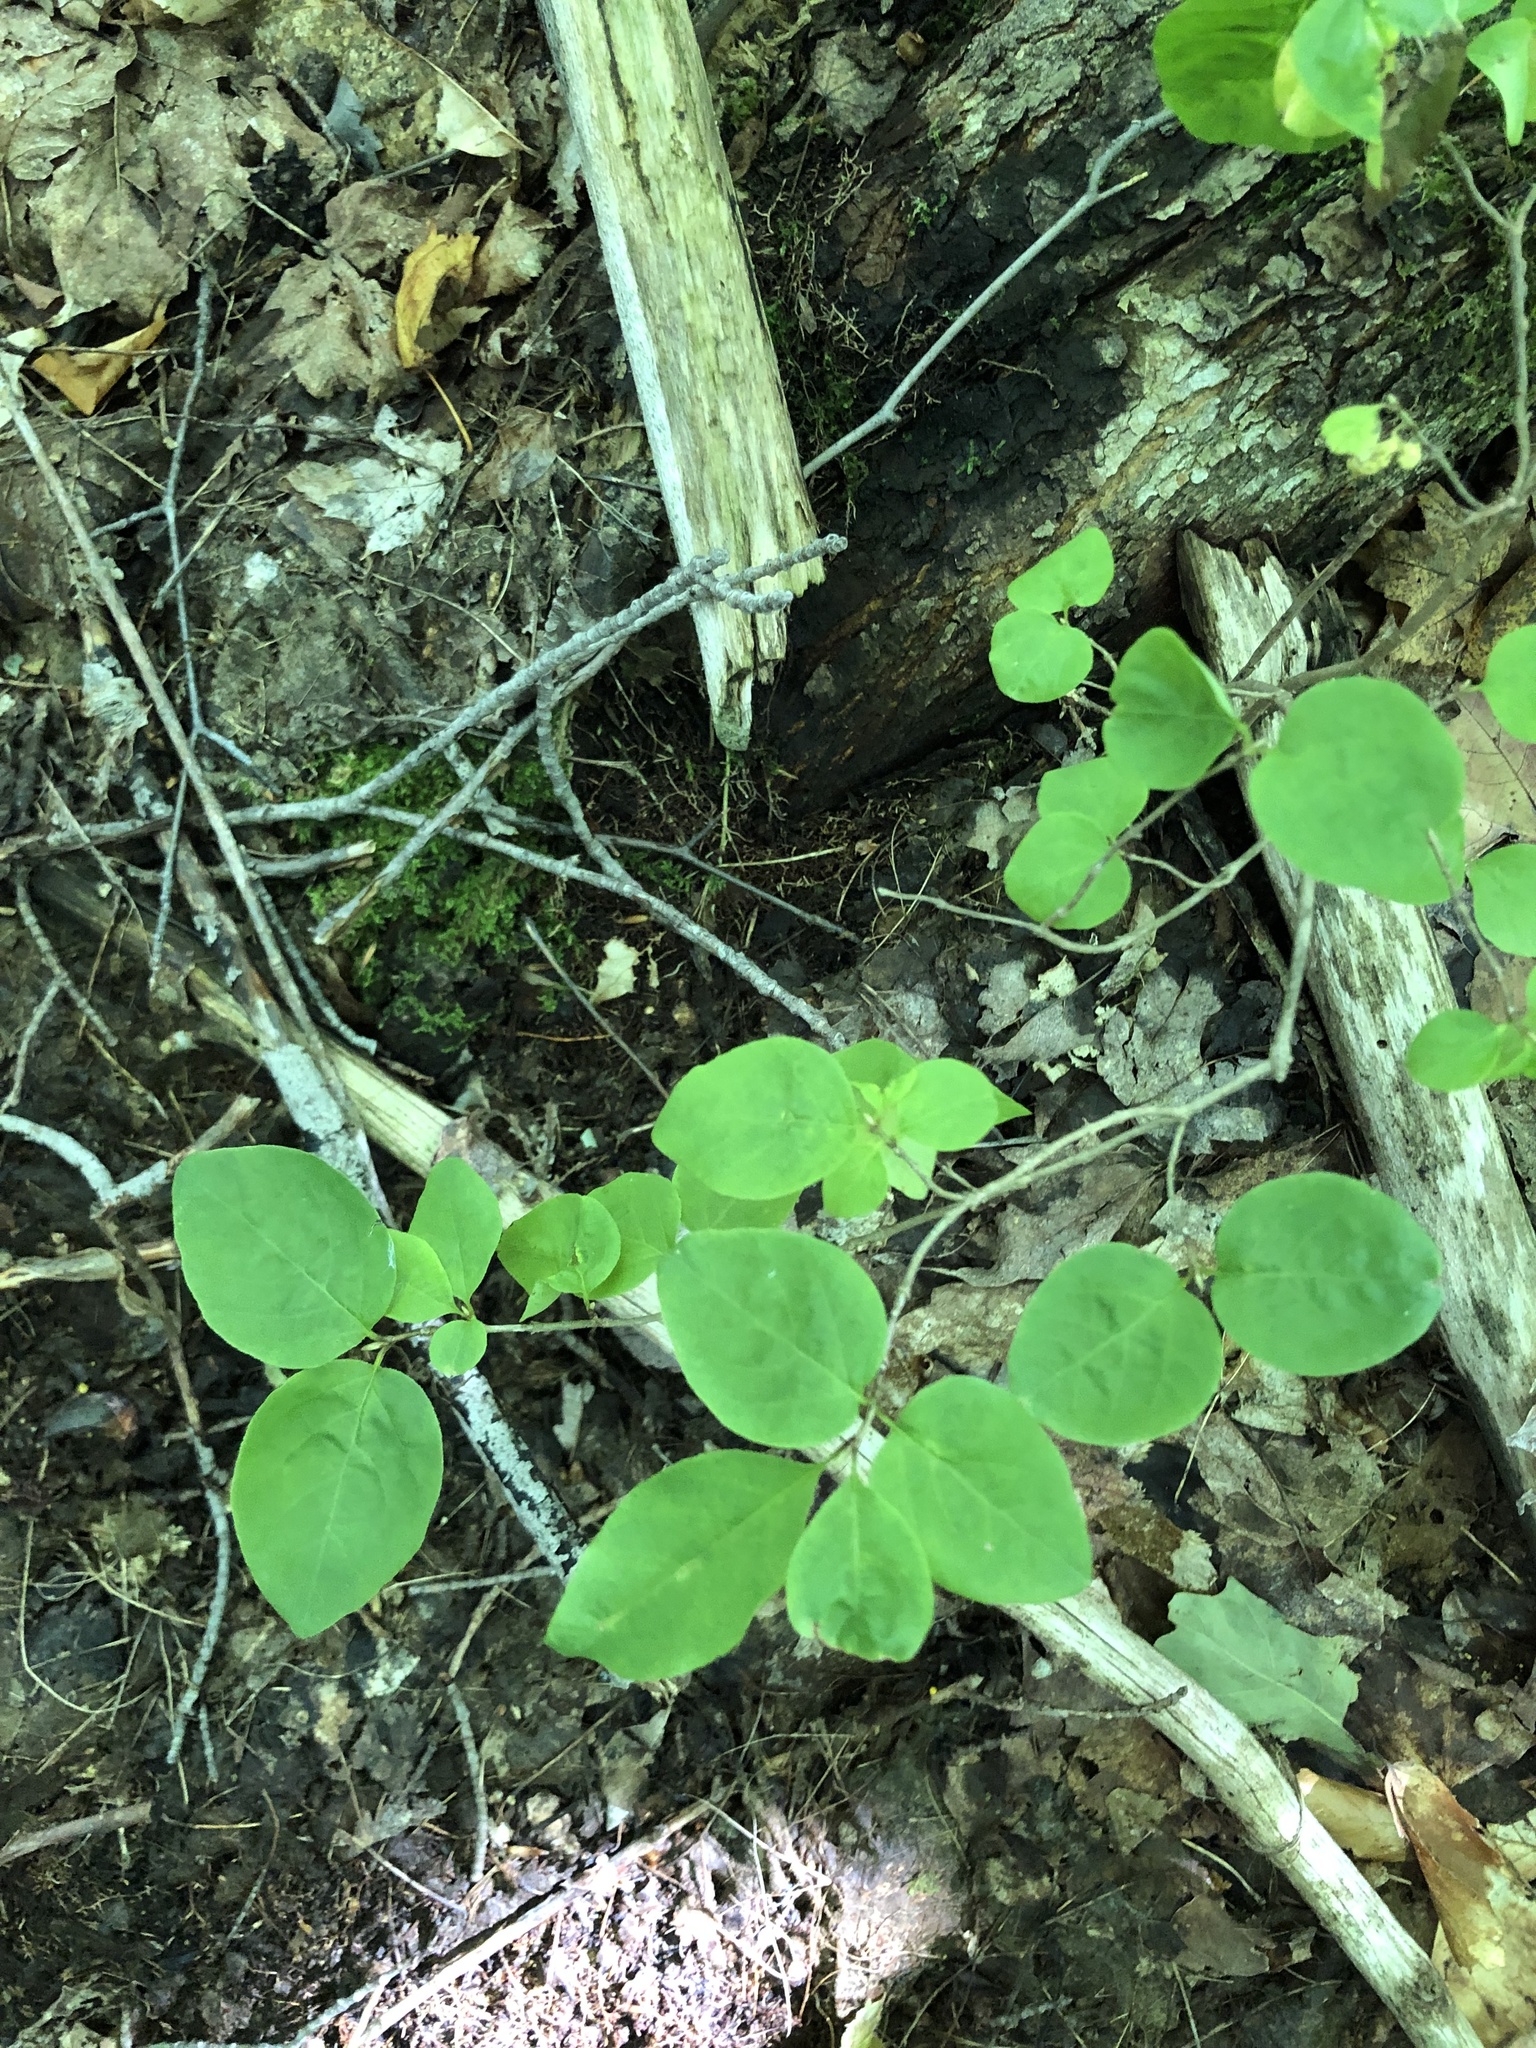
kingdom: Plantae
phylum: Tracheophyta
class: Magnoliopsida
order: Dipsacales
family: Caprifoliaceae
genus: Lonicera
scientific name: Lonicera canadensis
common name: American fly-honeysuckle
